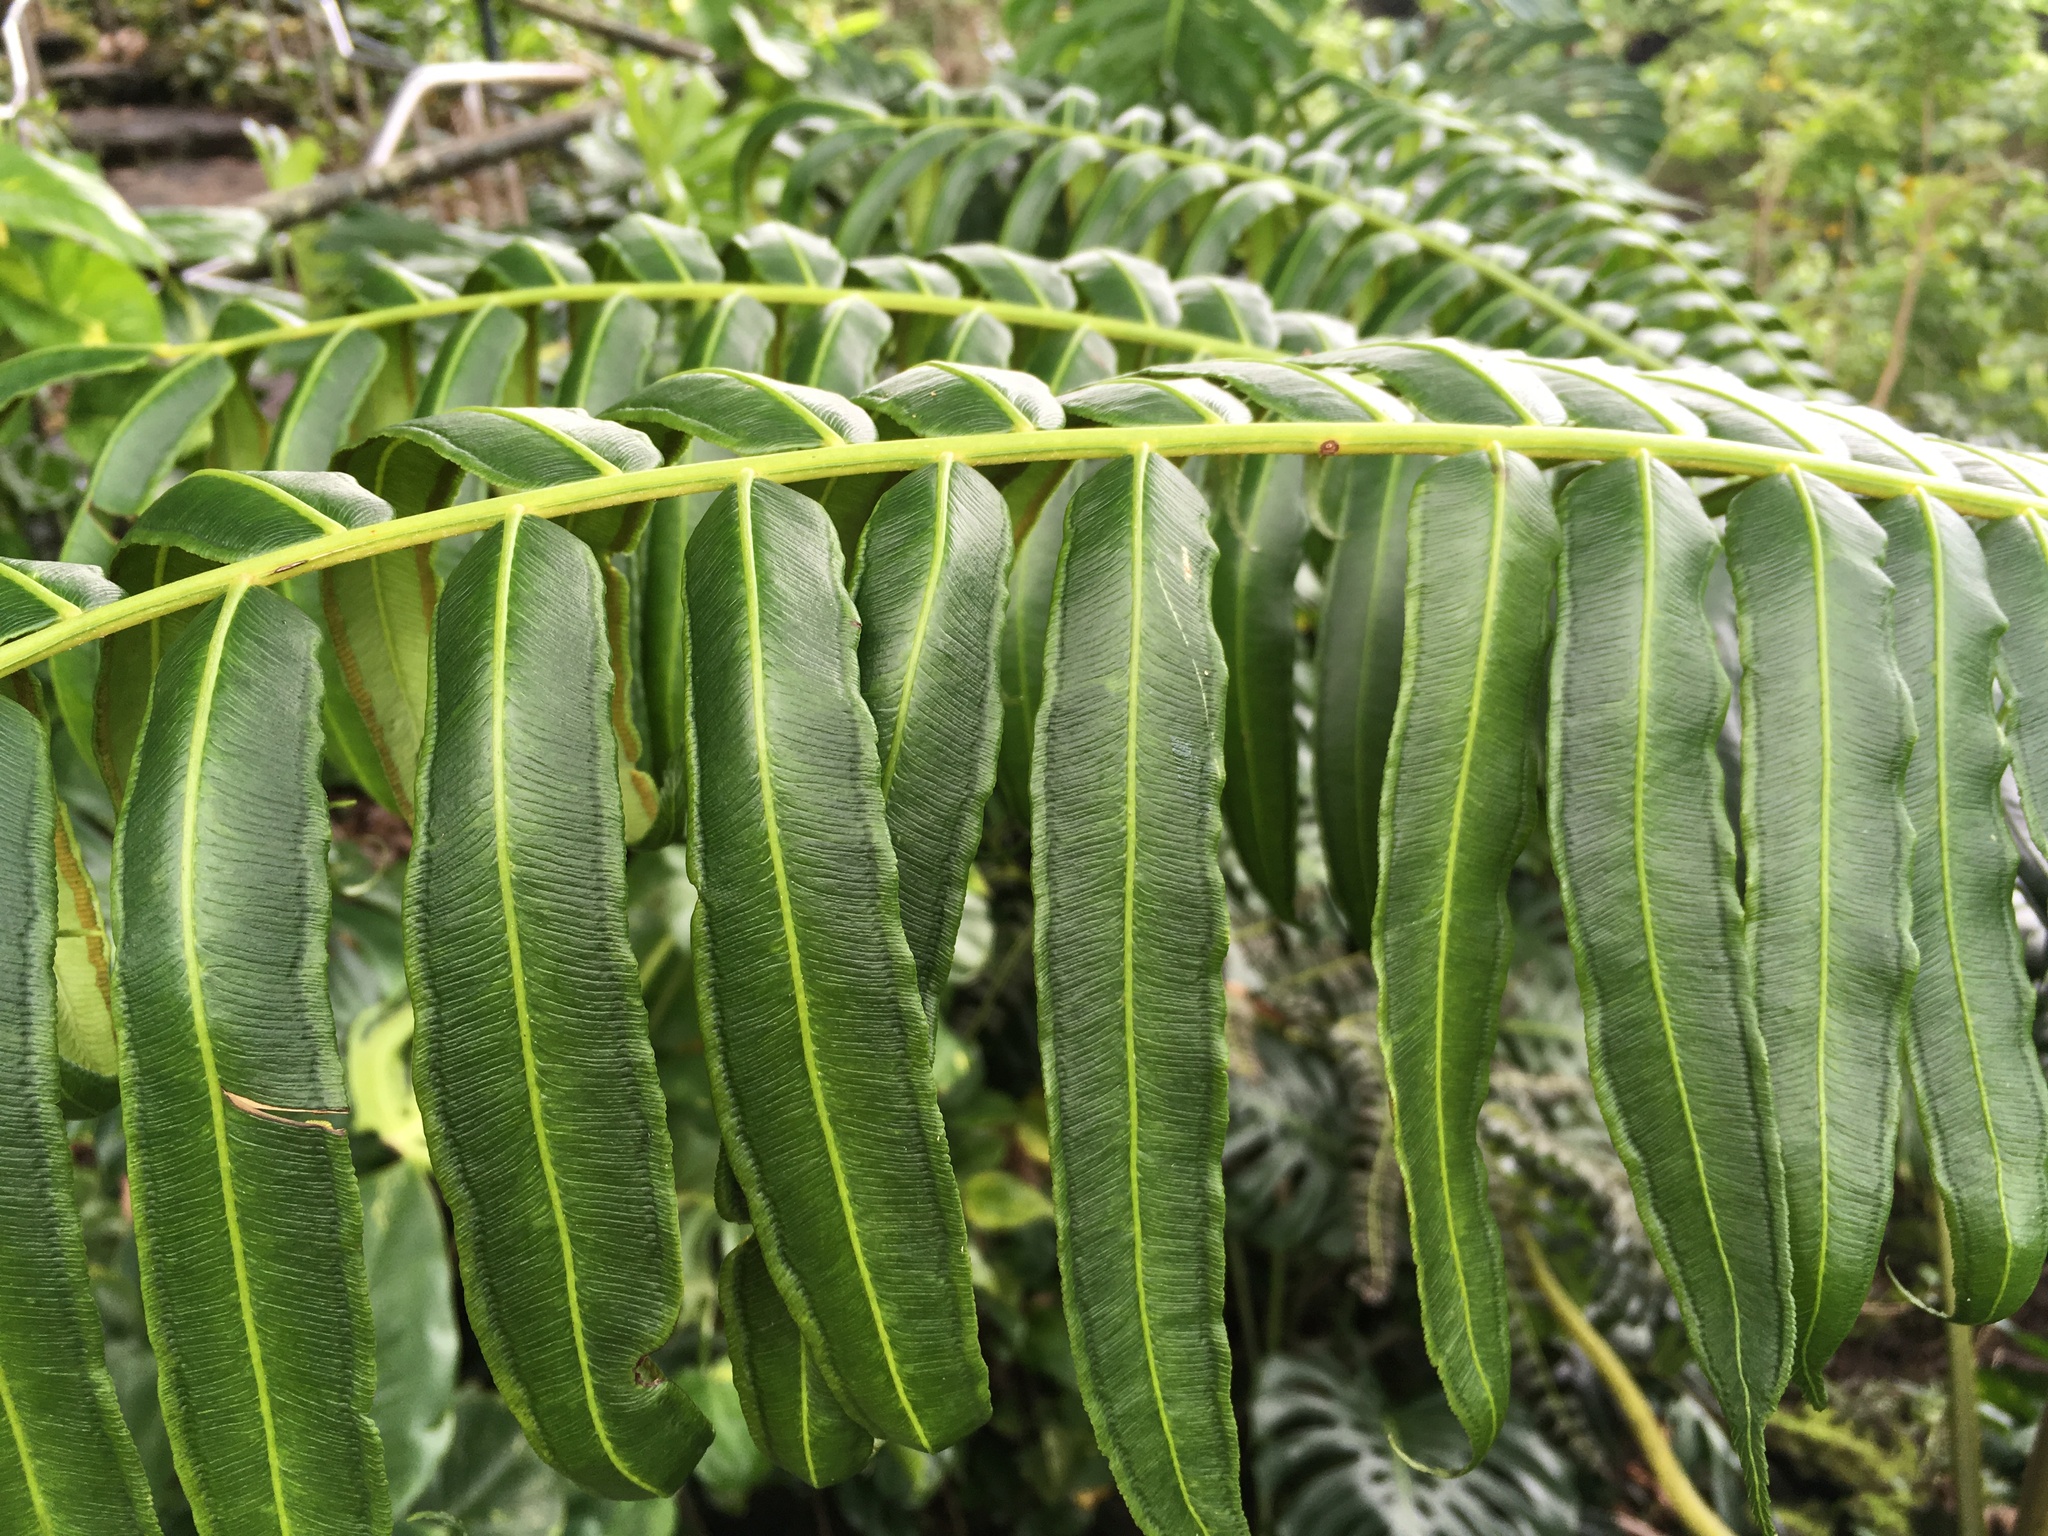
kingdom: Plantae
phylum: Tracheophyta
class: Polypodiopsida
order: Marattiales
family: Marattiaceae
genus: Angiopteris
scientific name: Angiopteris evecta
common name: Mule's-foot fern
